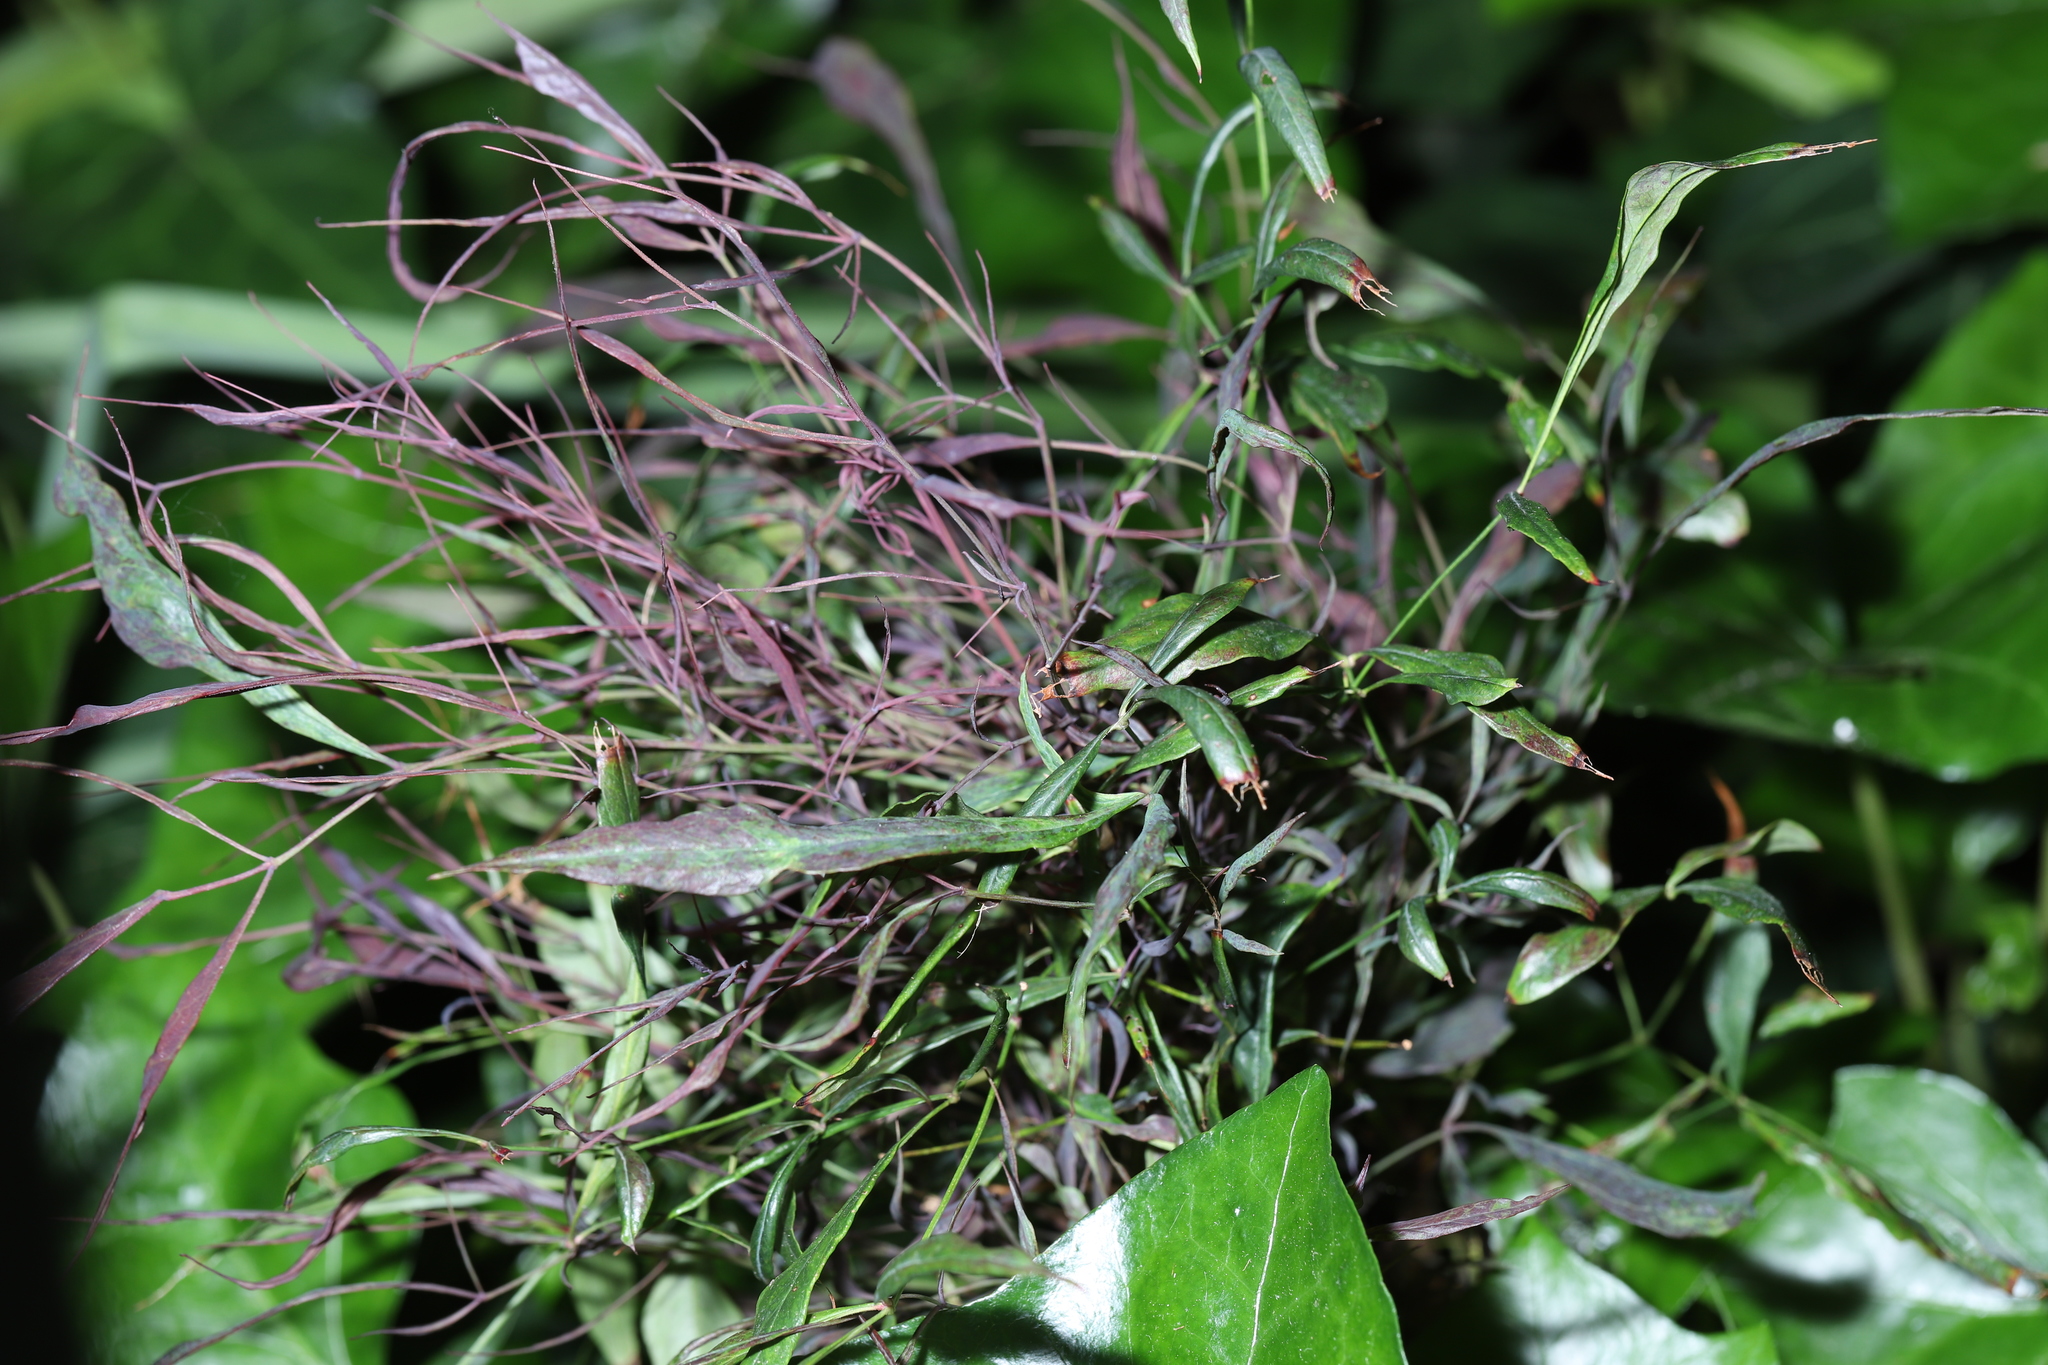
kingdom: Viruses
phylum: Kitrinoviricota
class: Alsuviricetes
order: Martellivirales
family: Bromoviridae
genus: Cucumovirus
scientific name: Cucumovirus Cucumber mosaic virus
